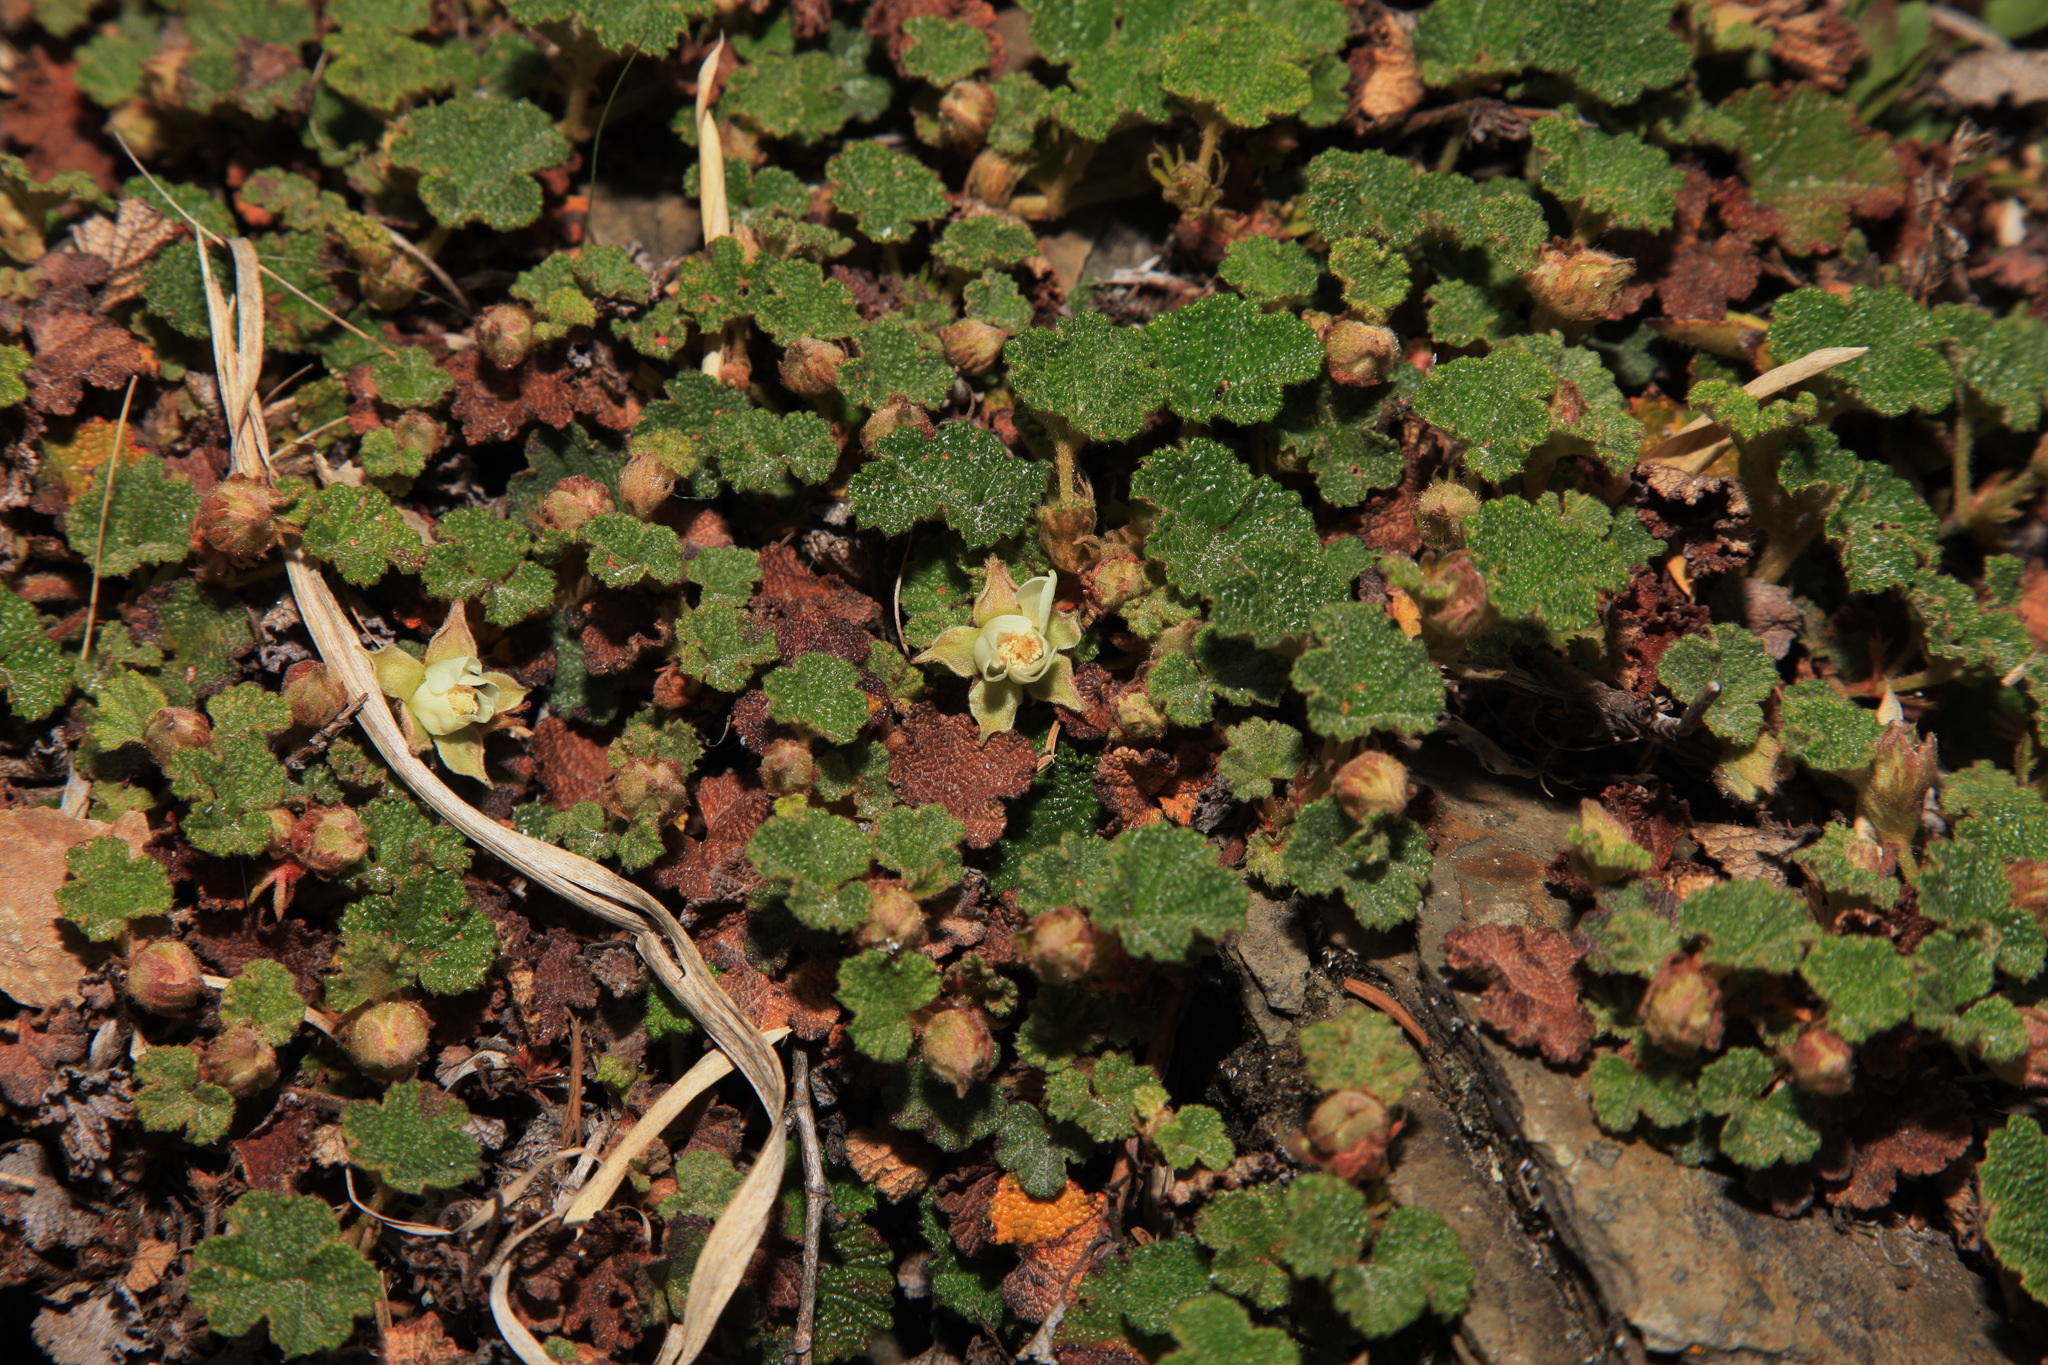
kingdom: Plantae
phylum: Tracheophyta
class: Magnoliopsida
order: Rosales
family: Rosaceae
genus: Rubus
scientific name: Rubus rolfei
